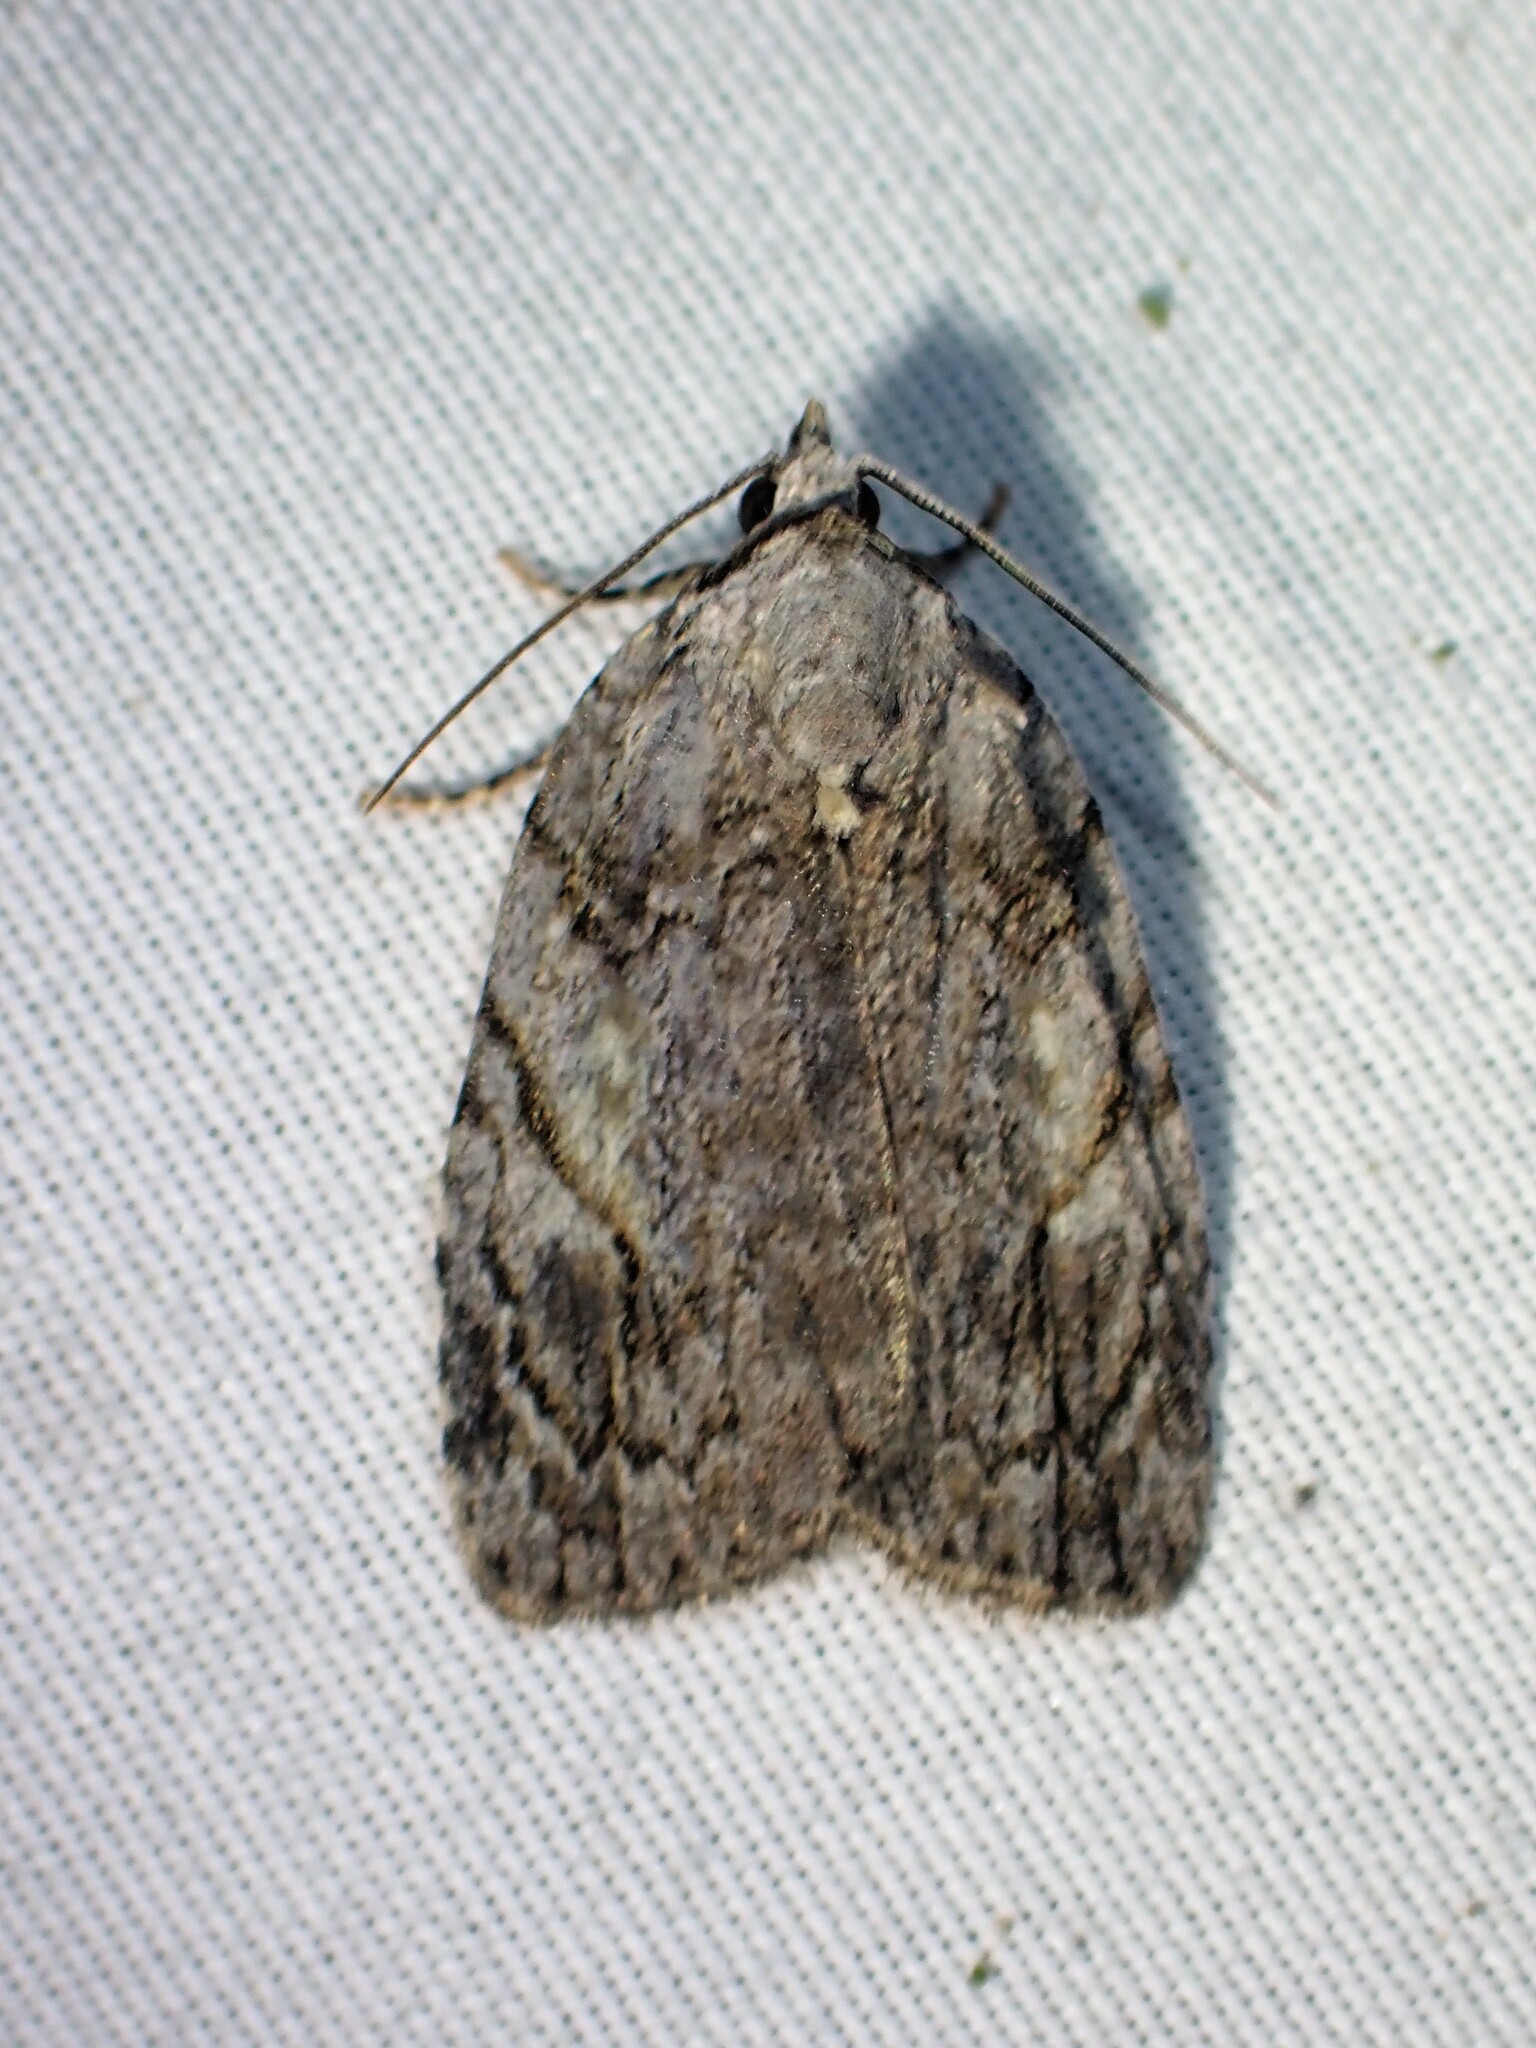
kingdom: Animalia
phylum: Arthropoda
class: Insecta
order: Lepidoptera
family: Noctuidae
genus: Balsa
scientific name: Balsa labecula
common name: White-blotched balsa moth
